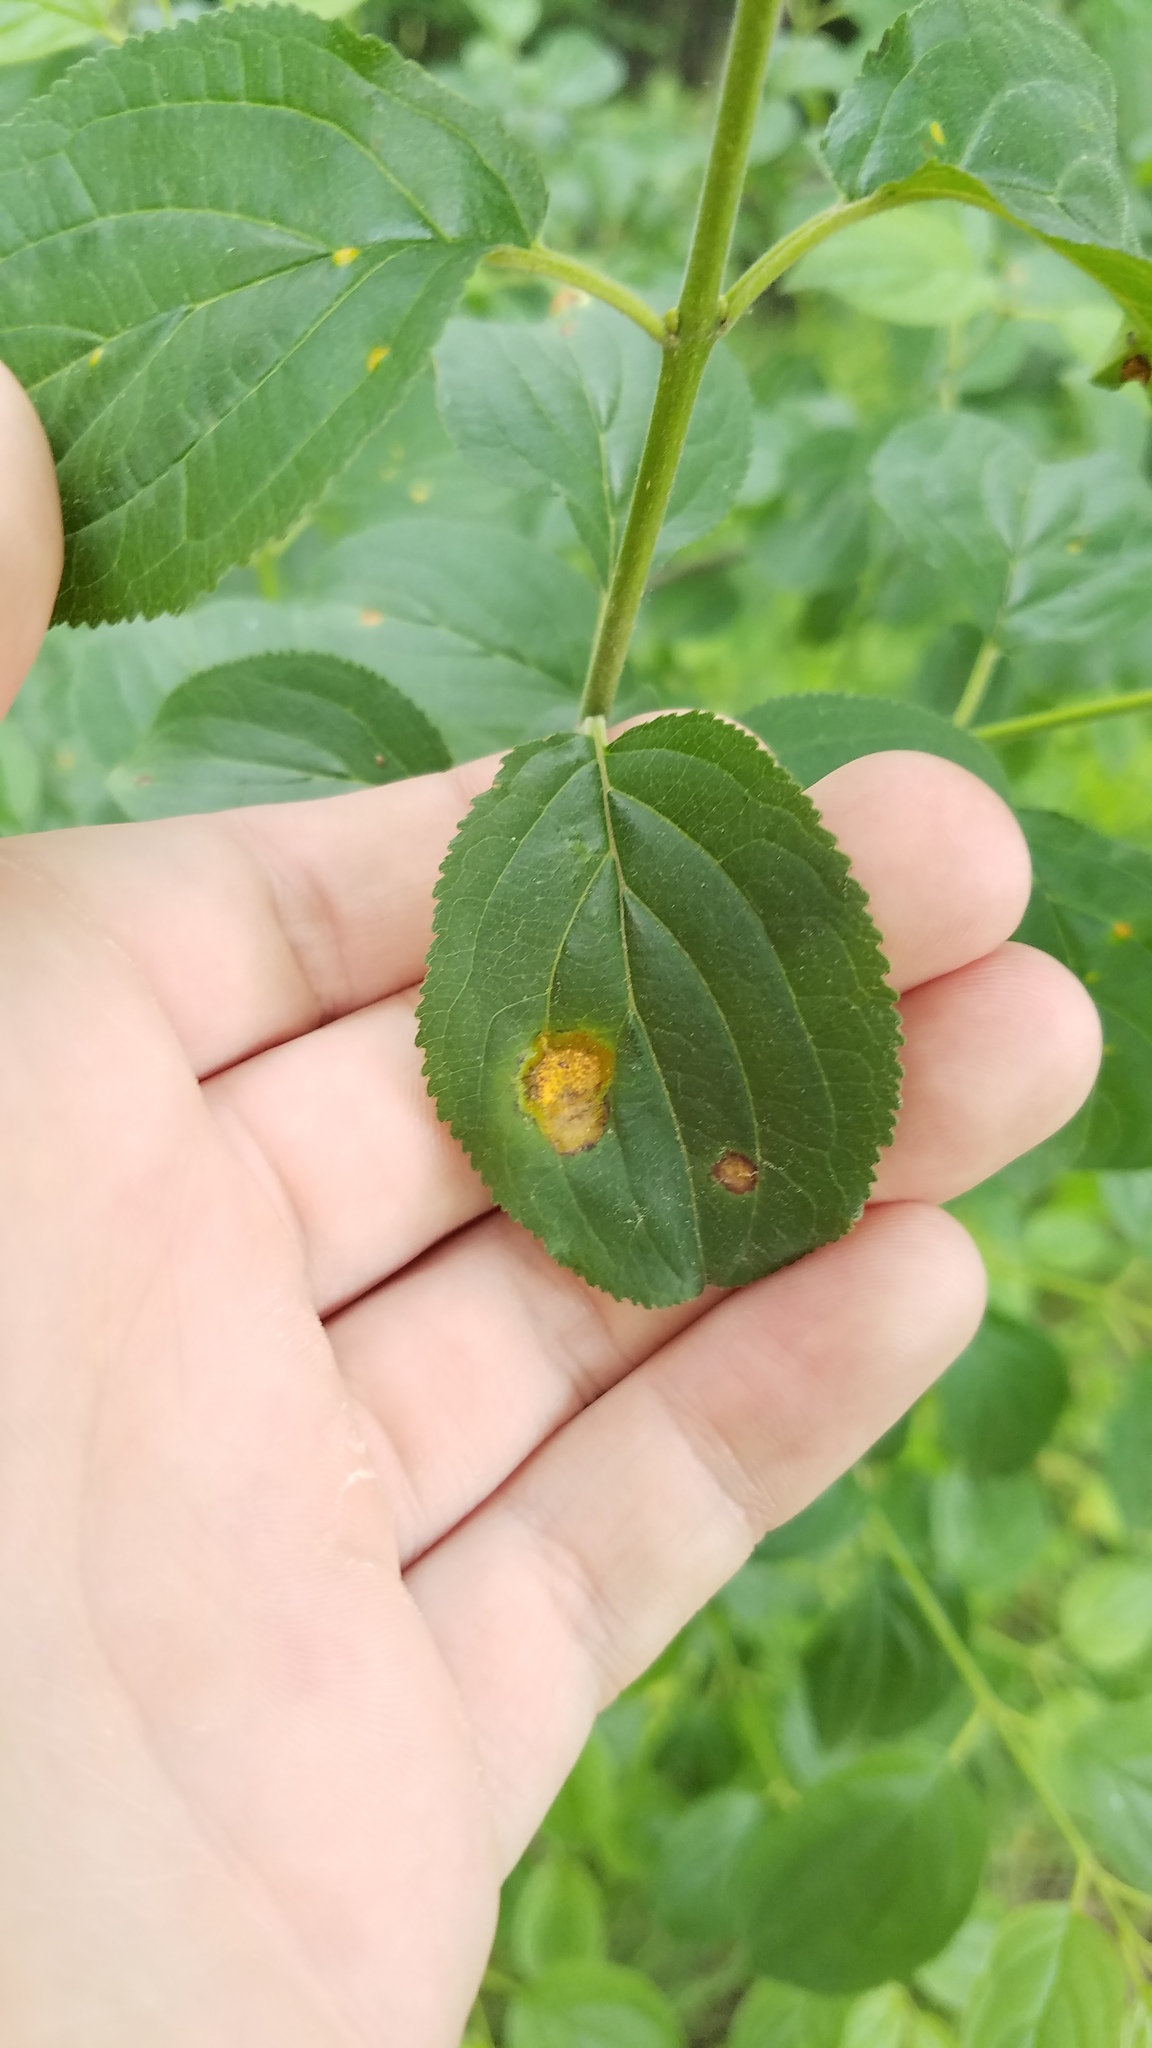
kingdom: Fungi
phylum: Basidiomycota
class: Pucciniomycetes
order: Pucciniales
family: Pucciniaceae
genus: Puccinia
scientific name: Puccinia
